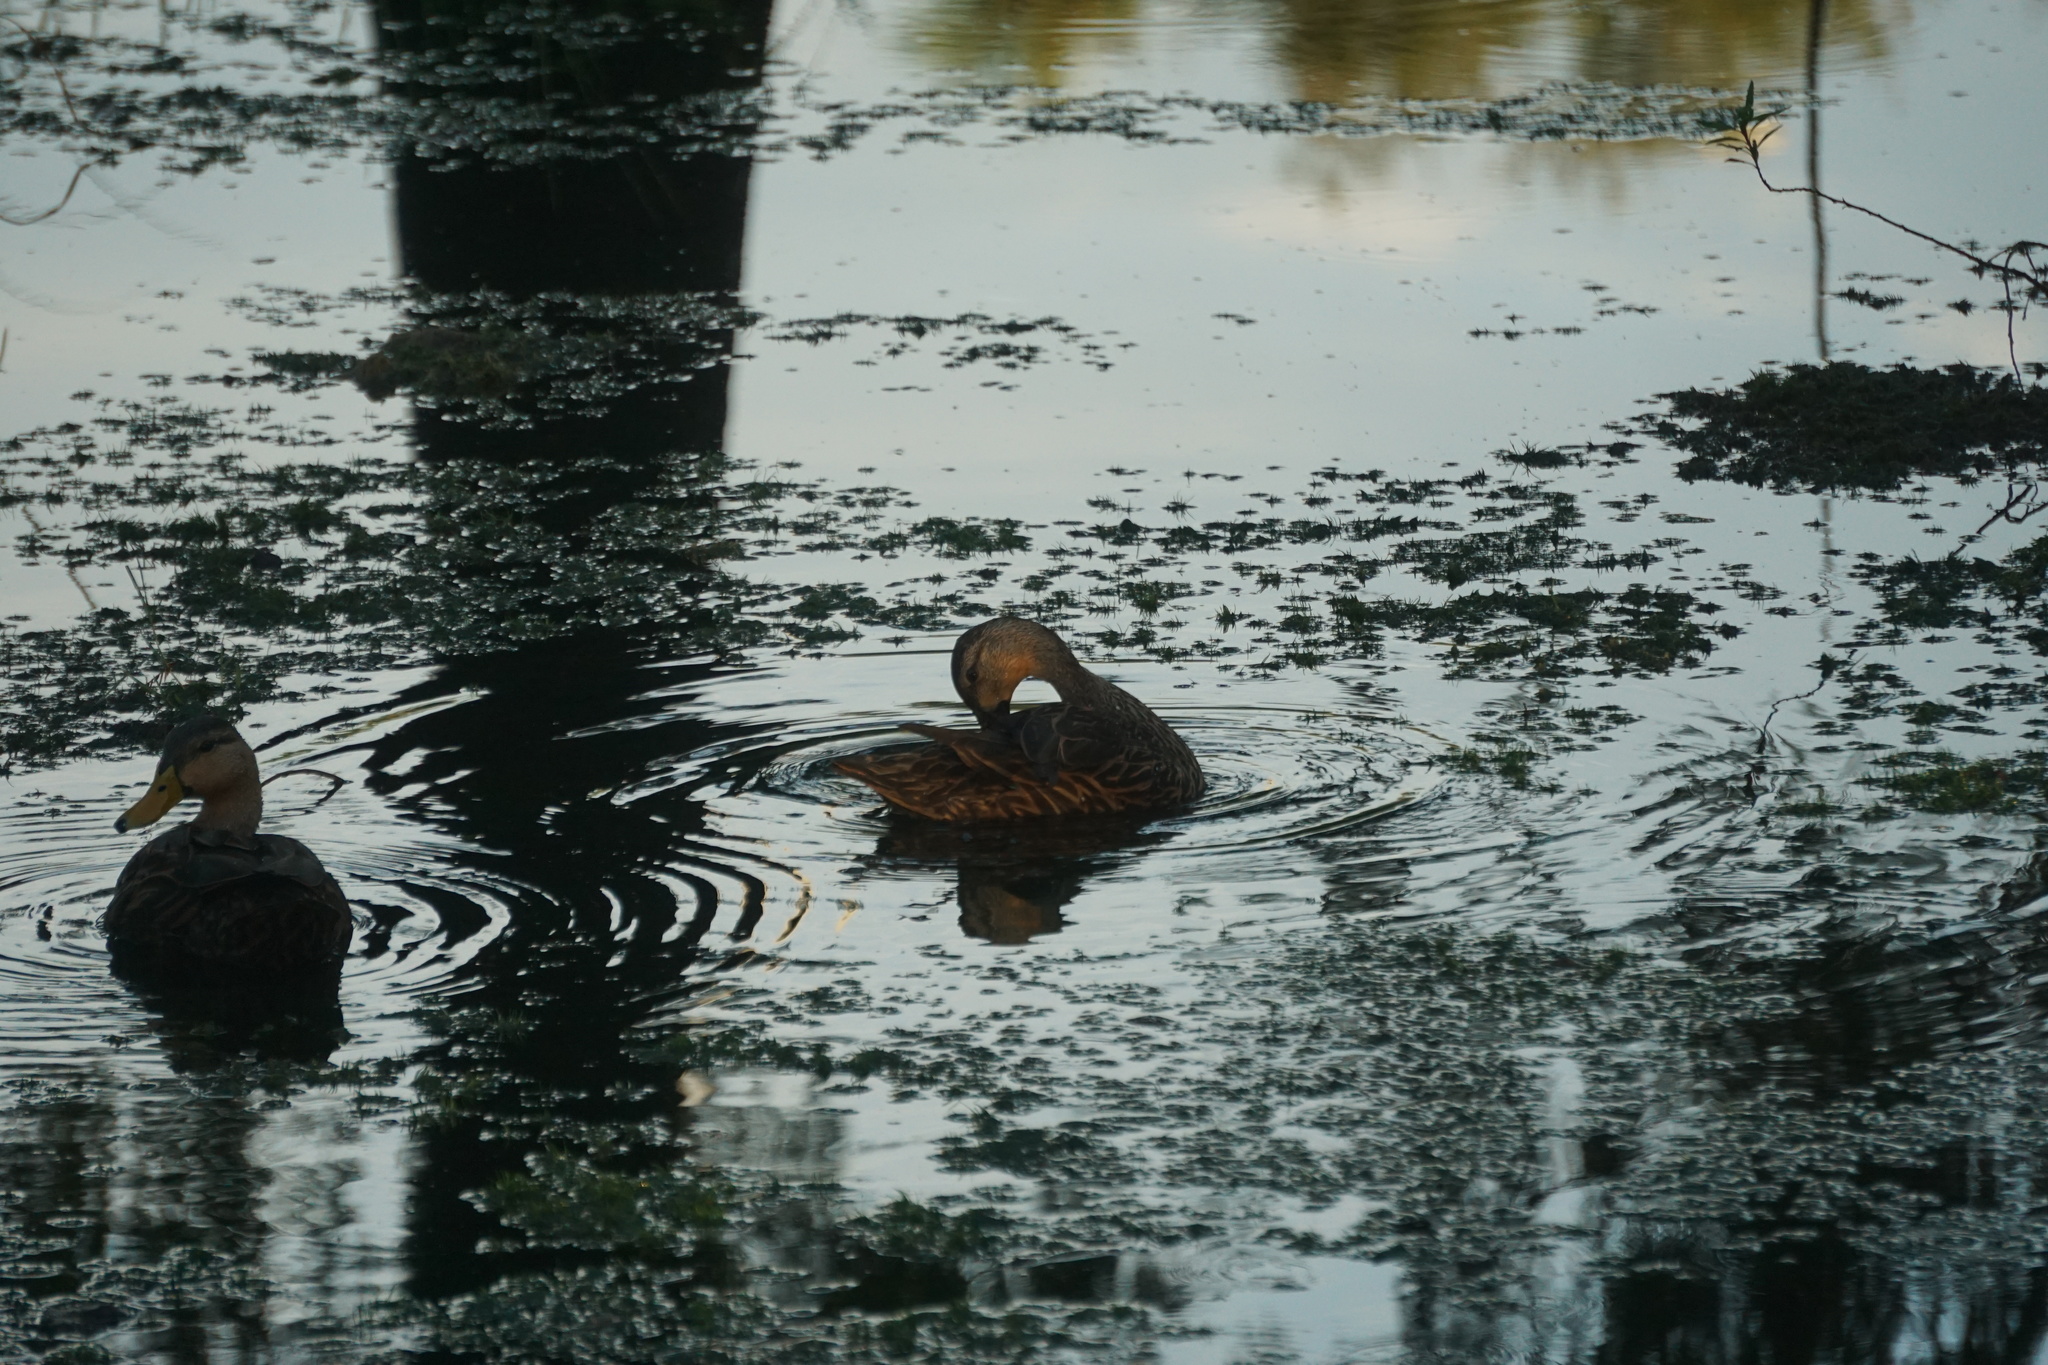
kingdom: Animalia
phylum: Chordata
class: Aves
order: Anseriformes
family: Anatidae
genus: Anas
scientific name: Anas
